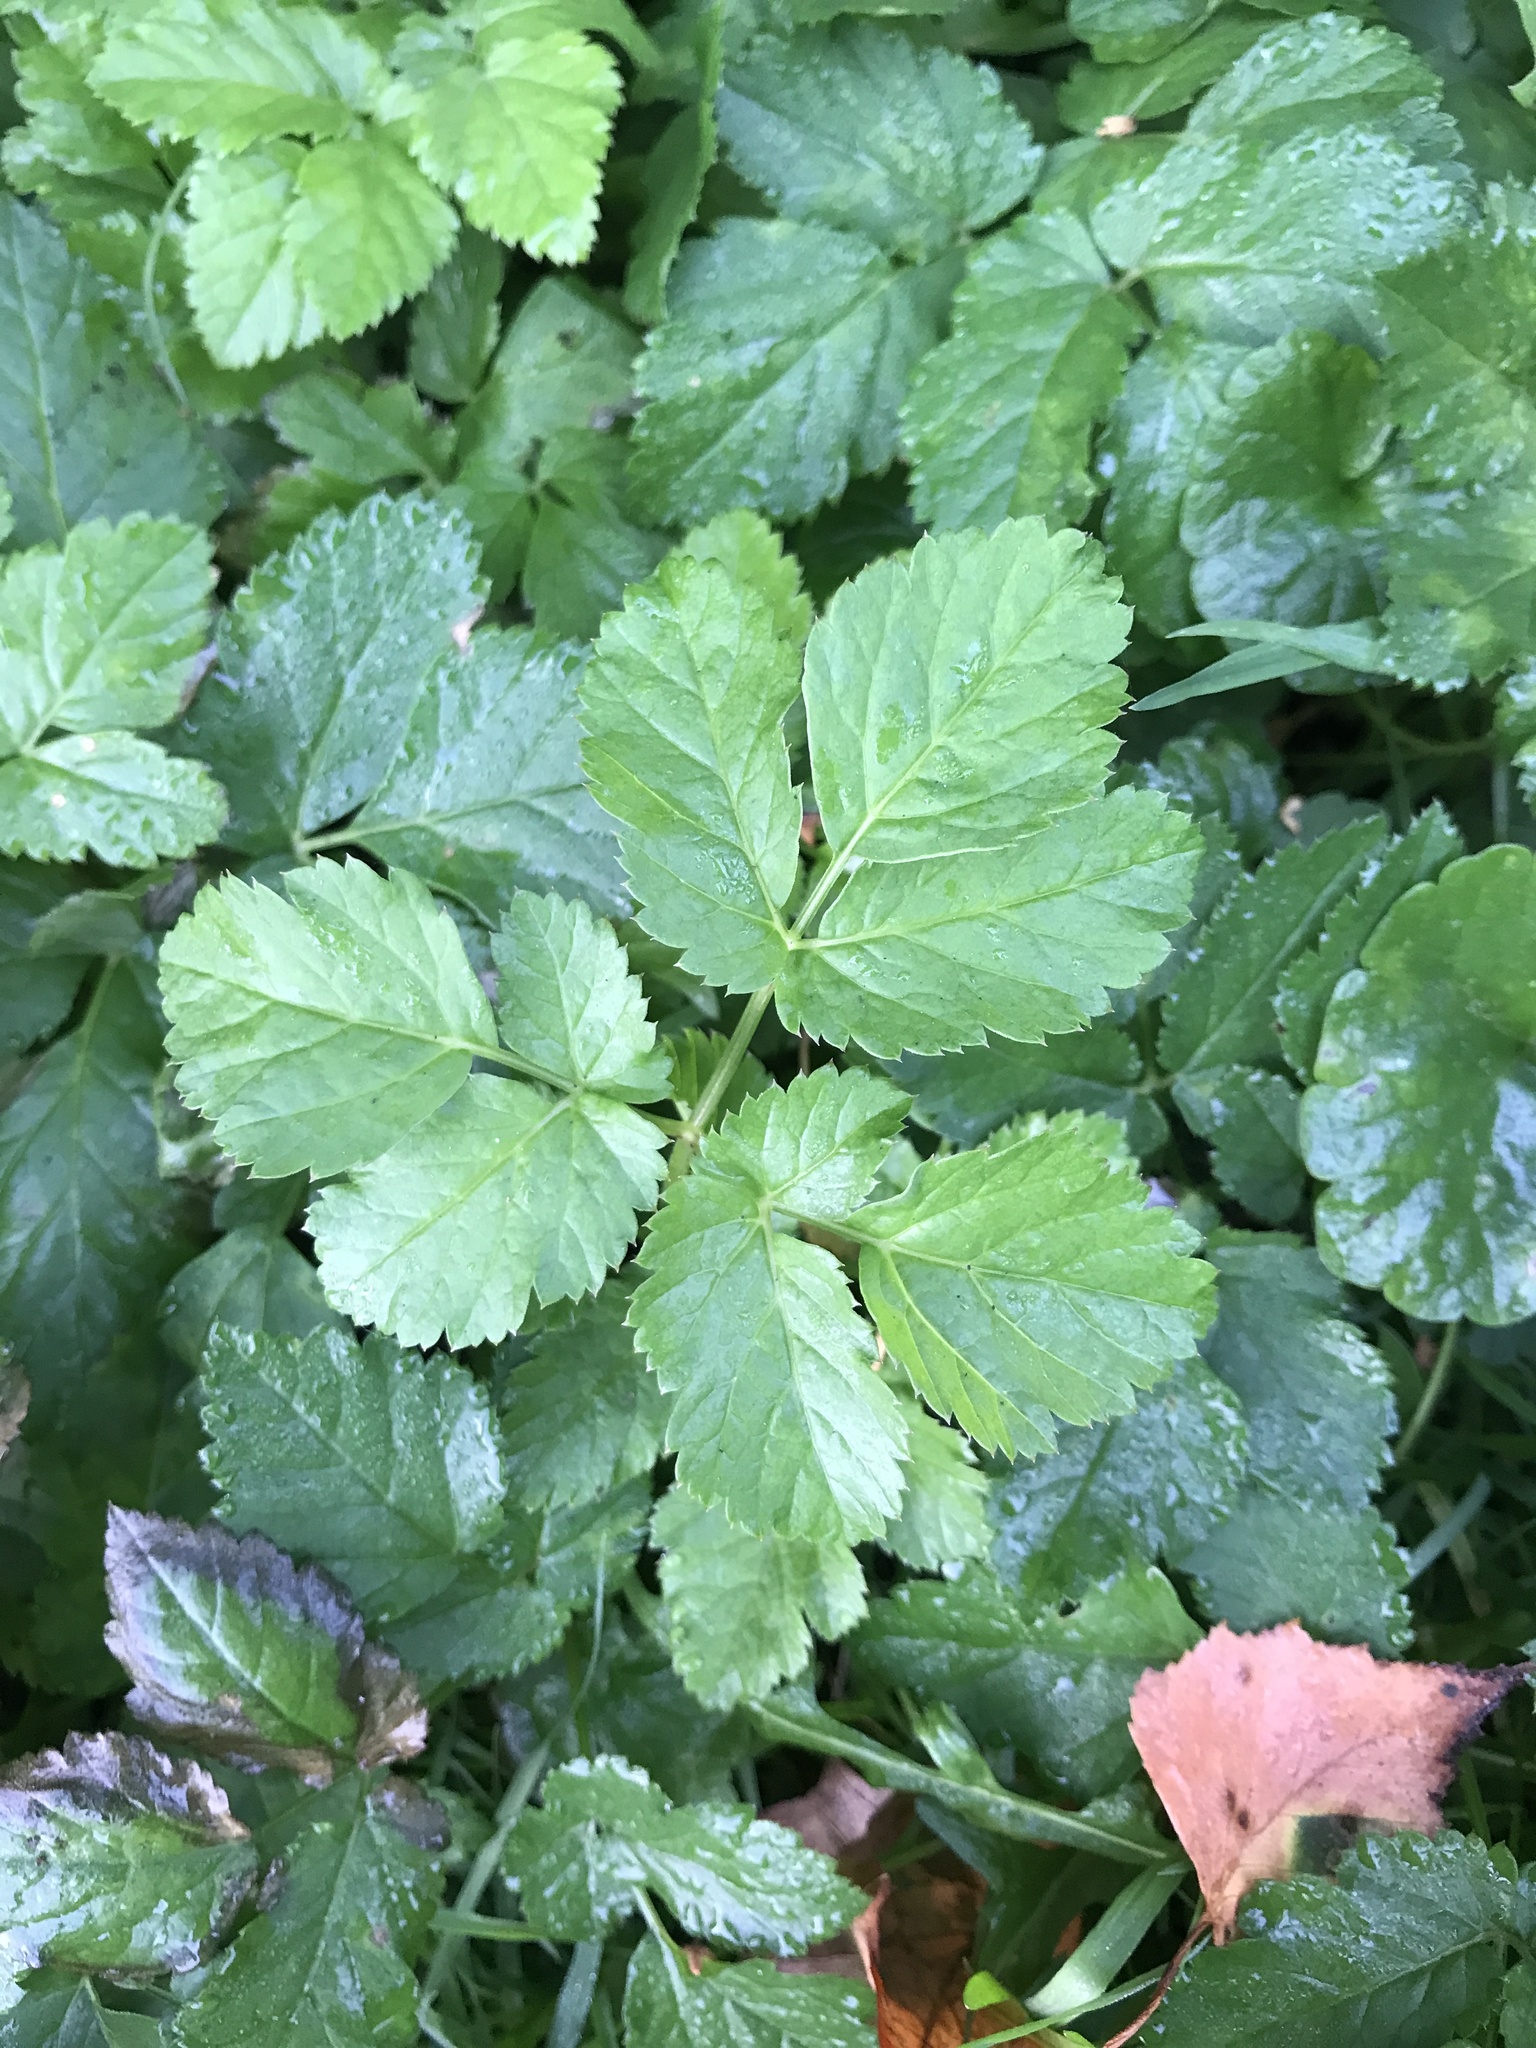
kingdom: Plantae
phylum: Tracheophyta
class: Magnoliopsida
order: Apiales
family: Apiaceae
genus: Aegopodium
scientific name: Aegopodium podagraria
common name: Ground-elder
